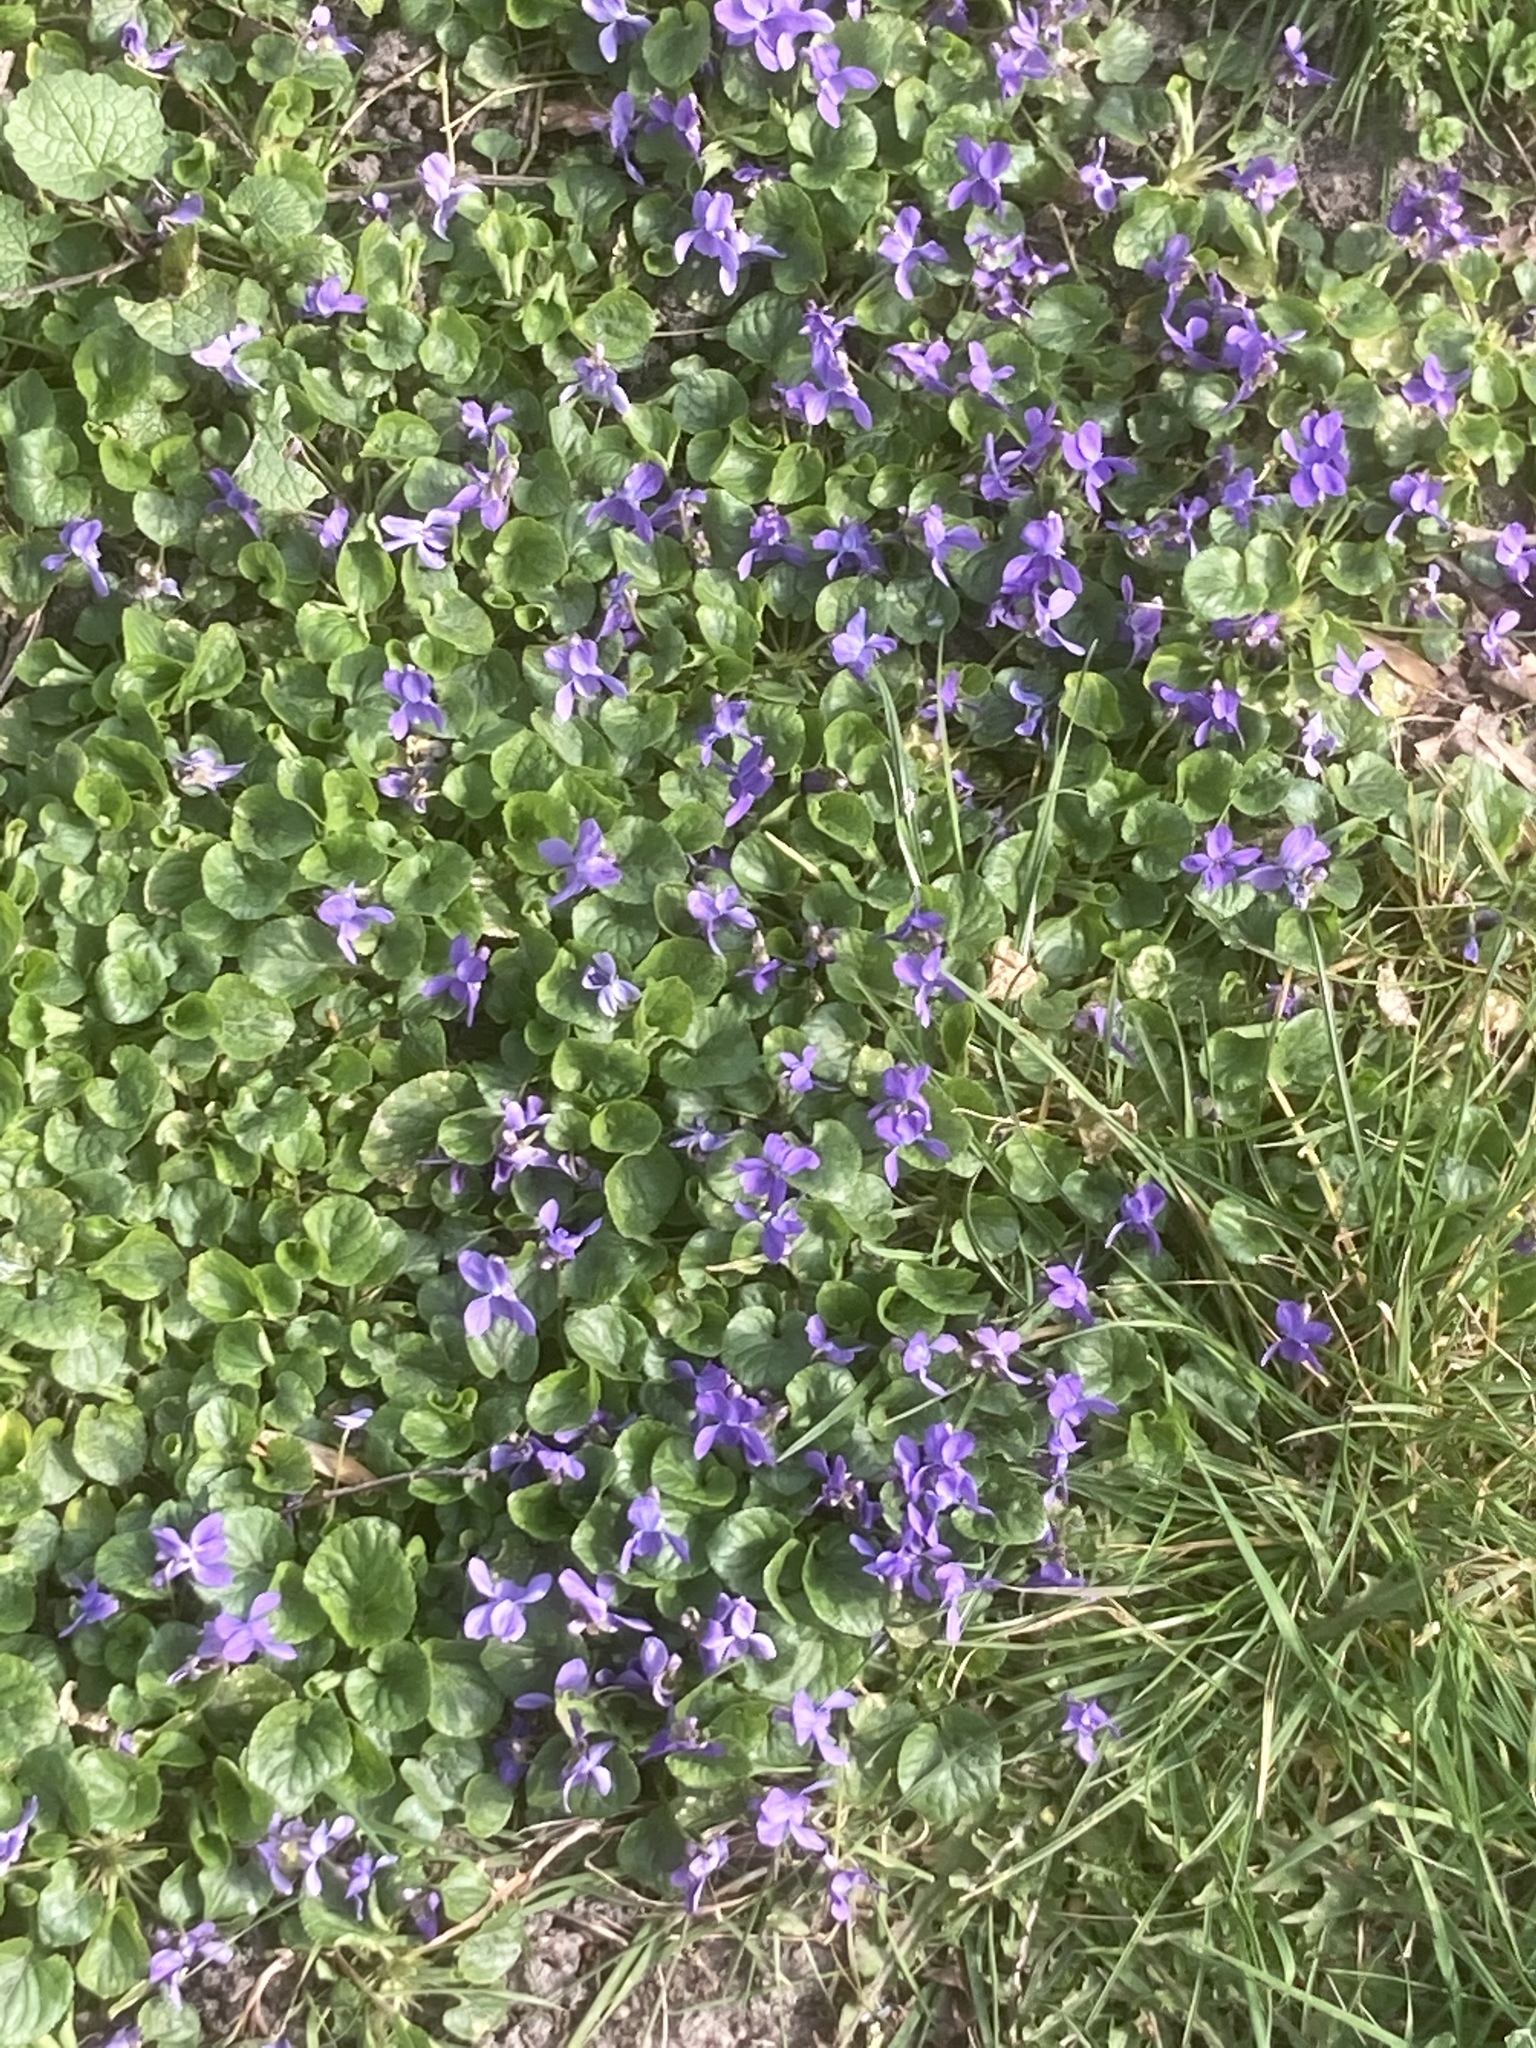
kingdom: Plantae
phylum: Tracheophyta
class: Magnoliopsida
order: Malpighiales
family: Violaceae
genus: Viola
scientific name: Viola odorata
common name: Sweet violet
